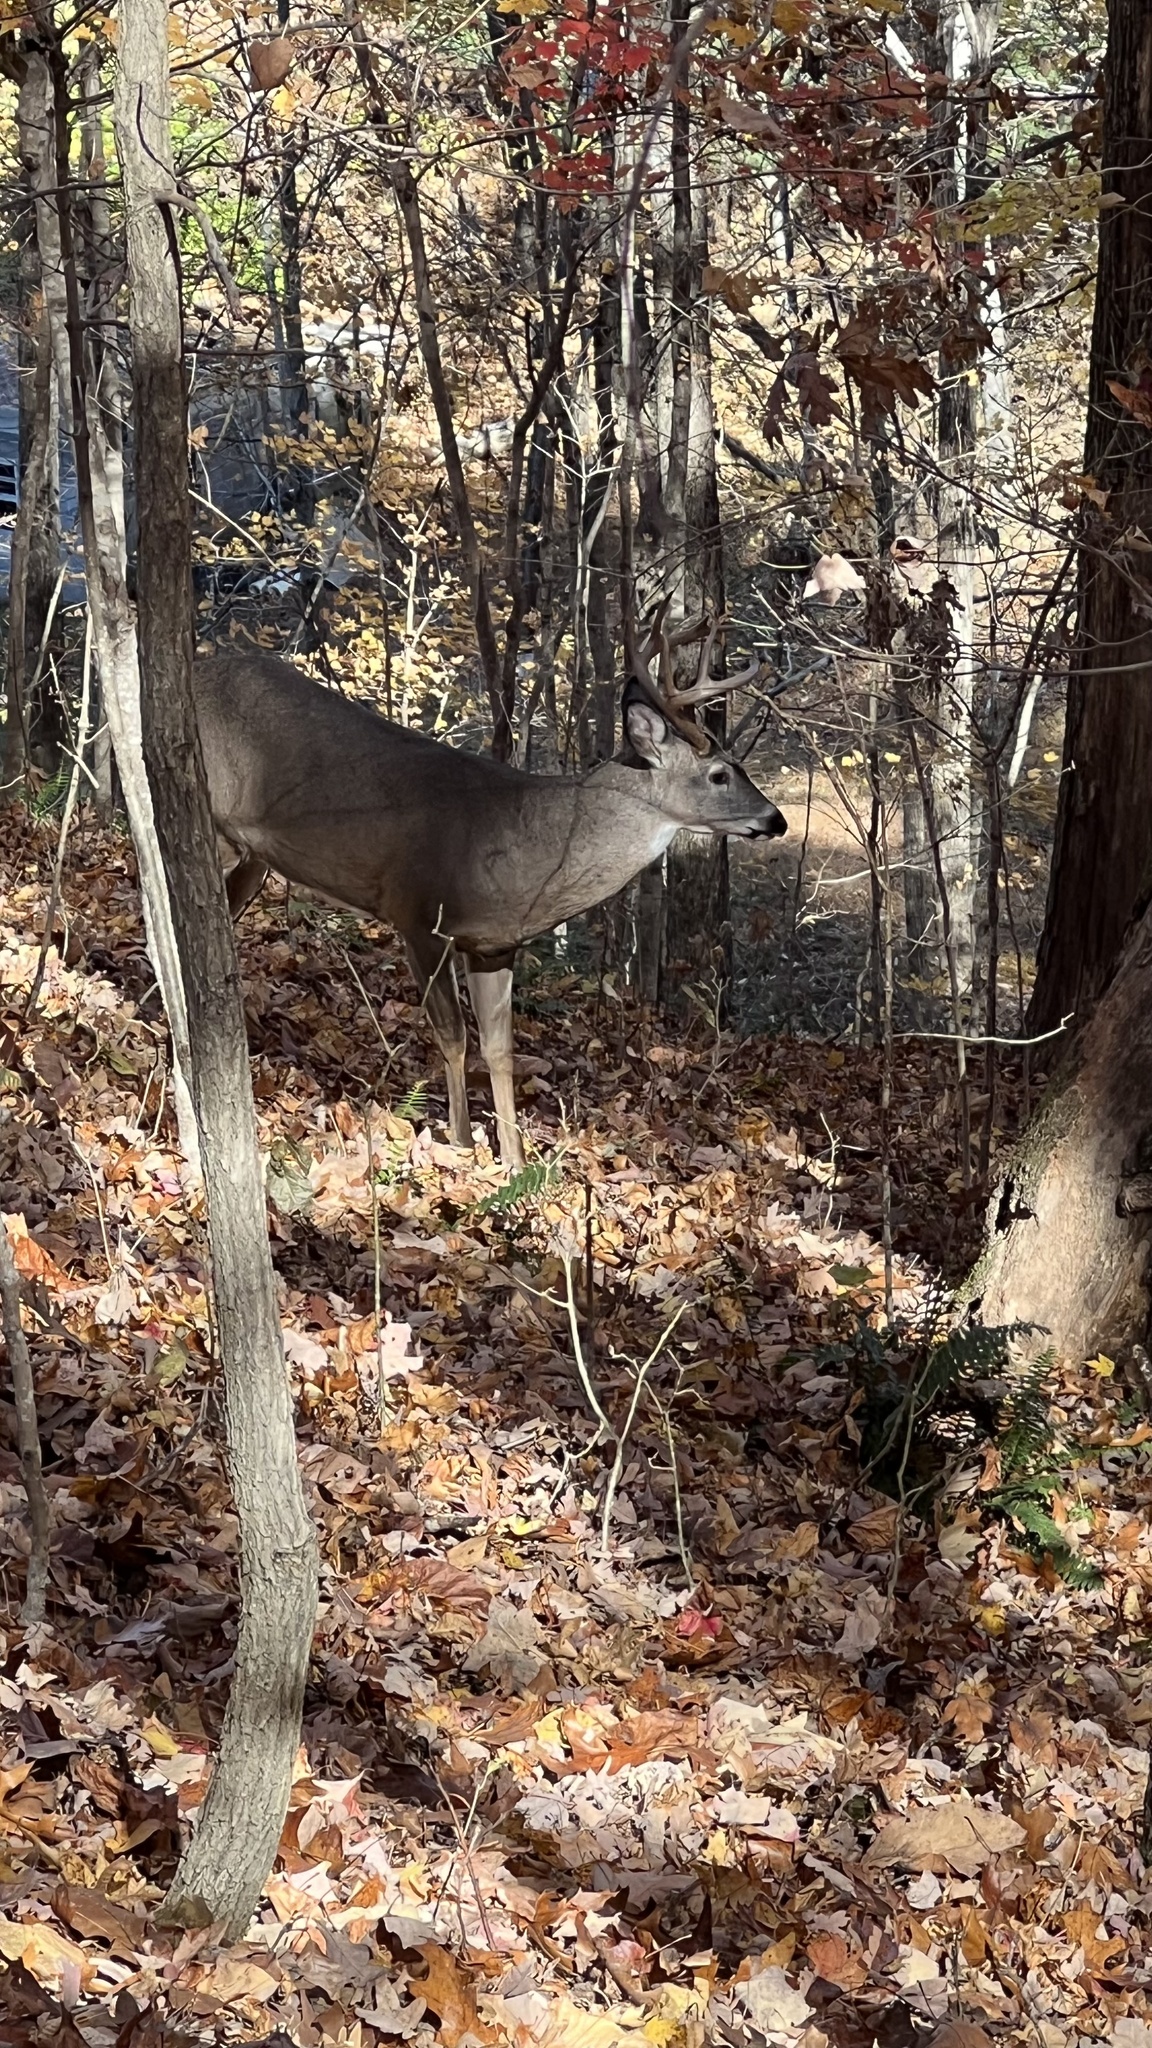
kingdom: Animalia
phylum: Chordata
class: Mammalia
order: Artiodactyla
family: Cervidae
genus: Odocoileus
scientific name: Odocoileus virginianus
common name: White-tailed deer
